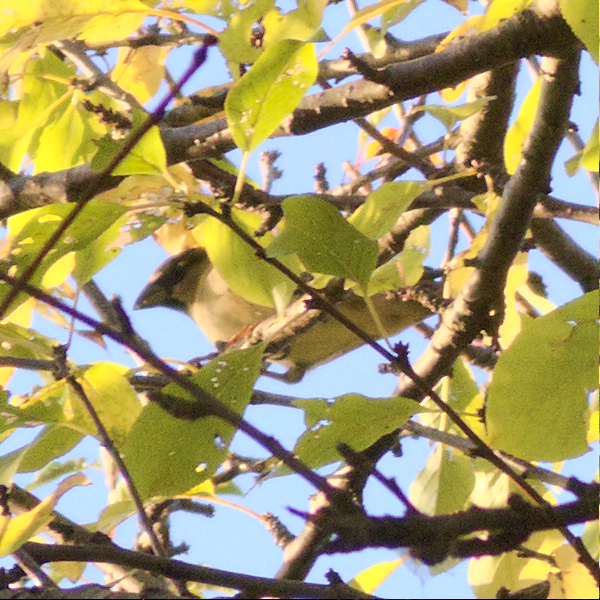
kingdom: Animalia
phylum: Chordata
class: Aves
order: Passeriformes
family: Passeridae
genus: Passer
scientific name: Passer domesticus
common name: House sparrow
